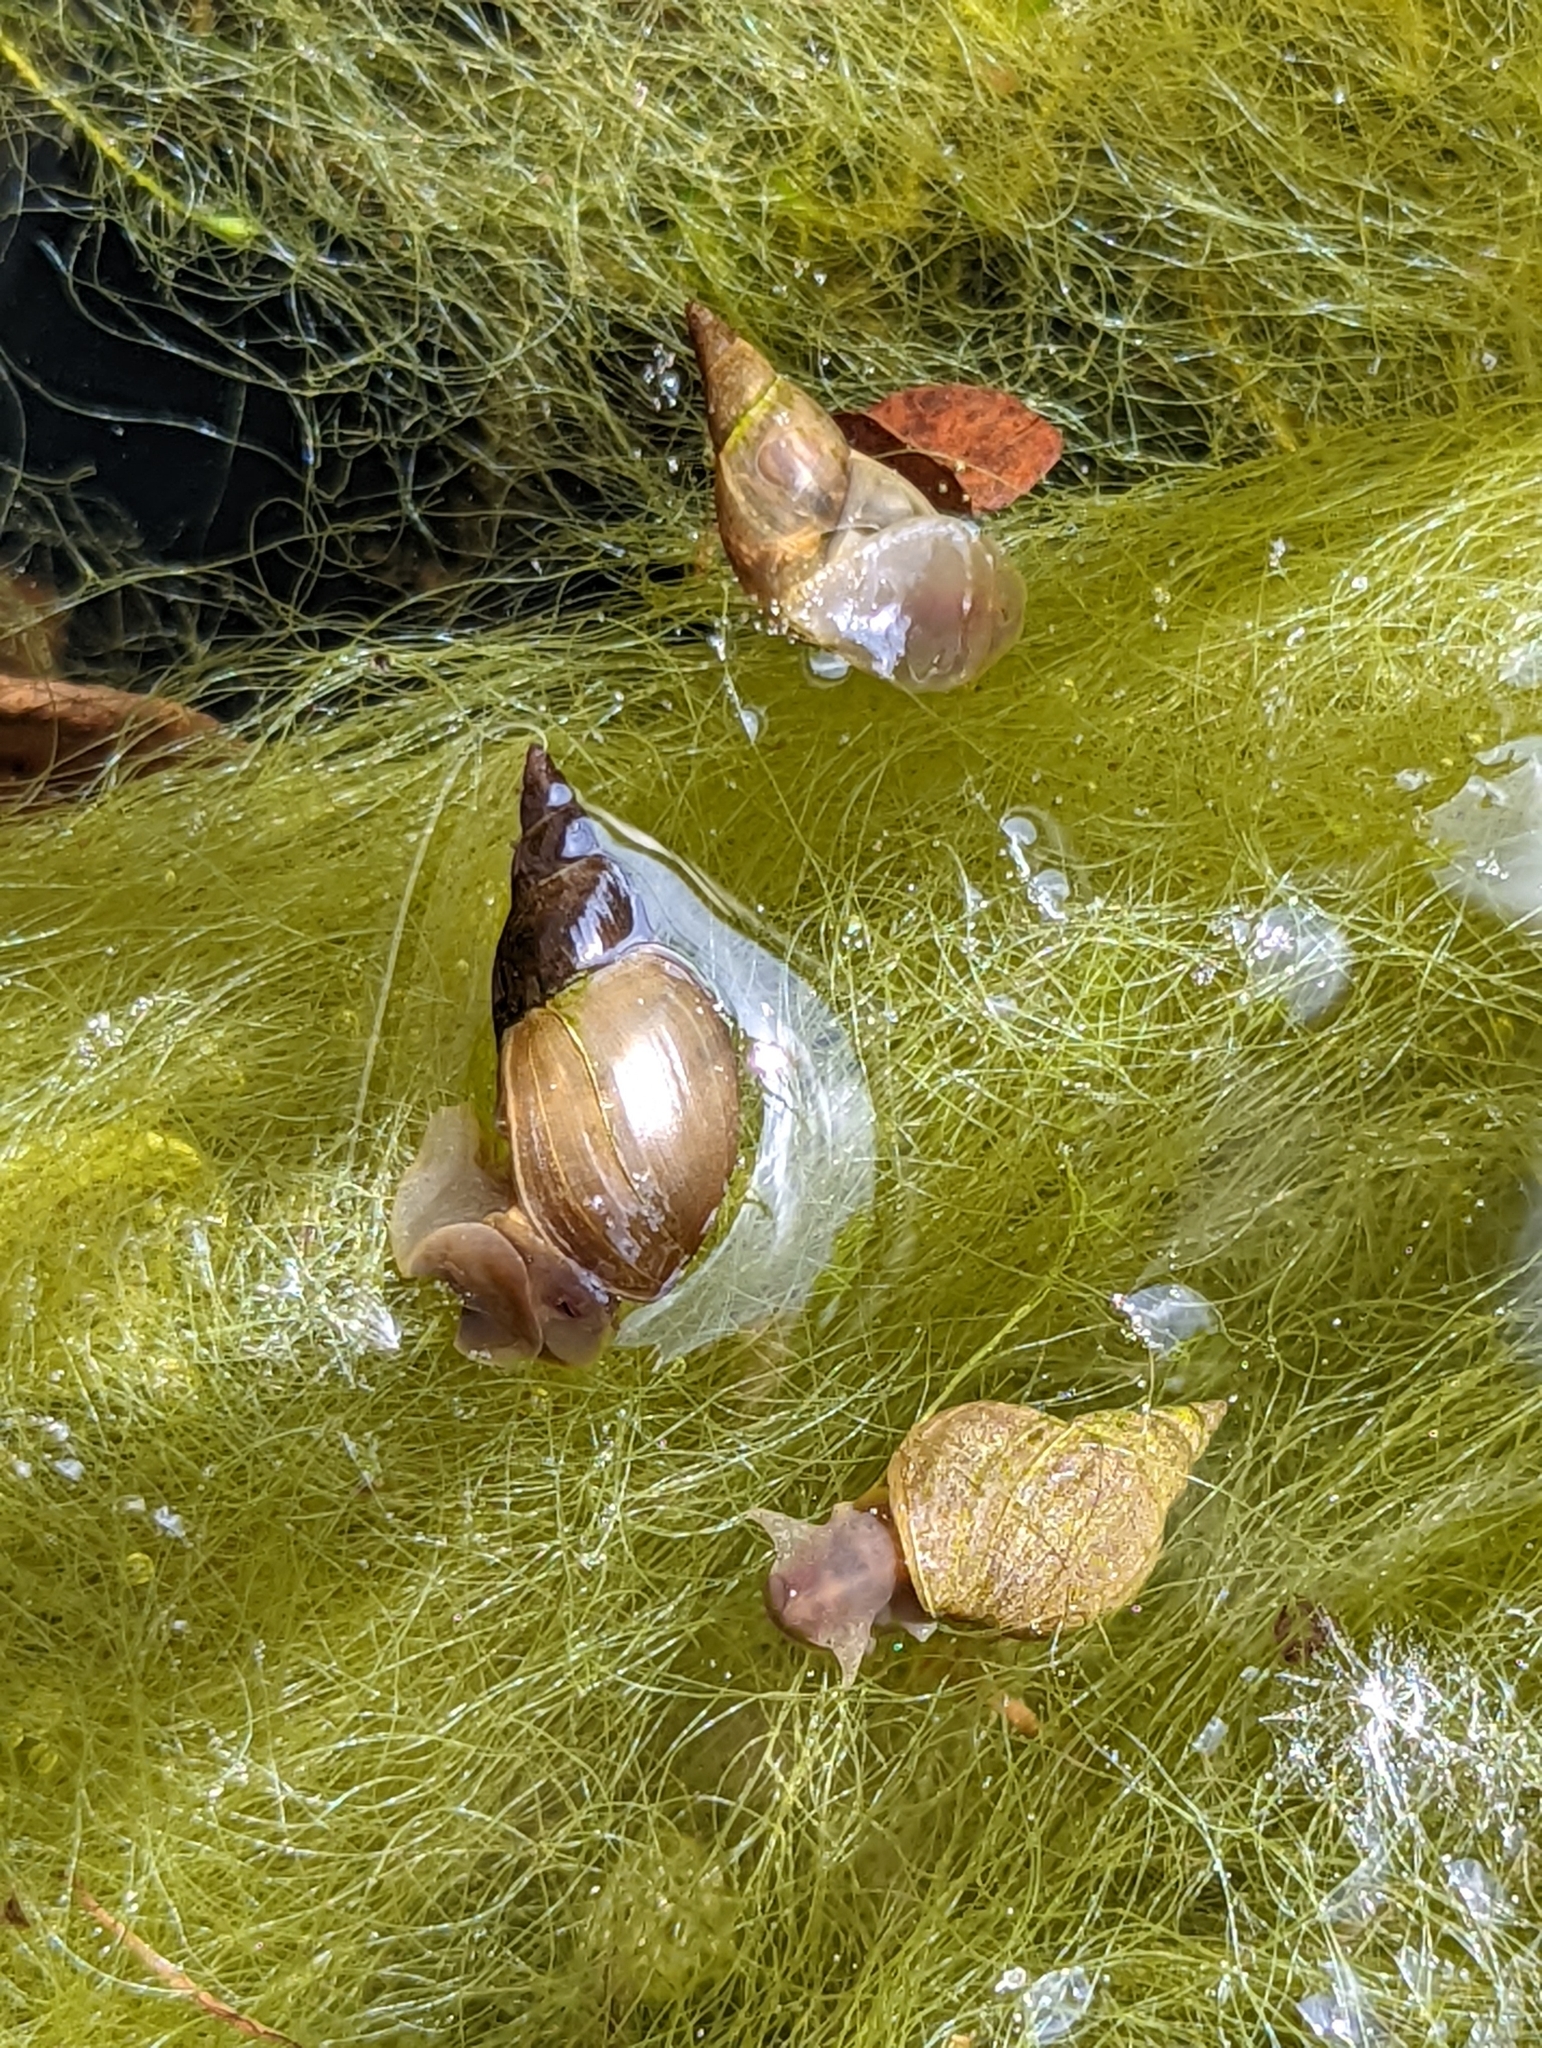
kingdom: Animalia
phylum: Mollusca
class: Gastropoda
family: Lymnaeidae
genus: Lymnaea
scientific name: Lymnaea stagnalis
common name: Great pond snail
